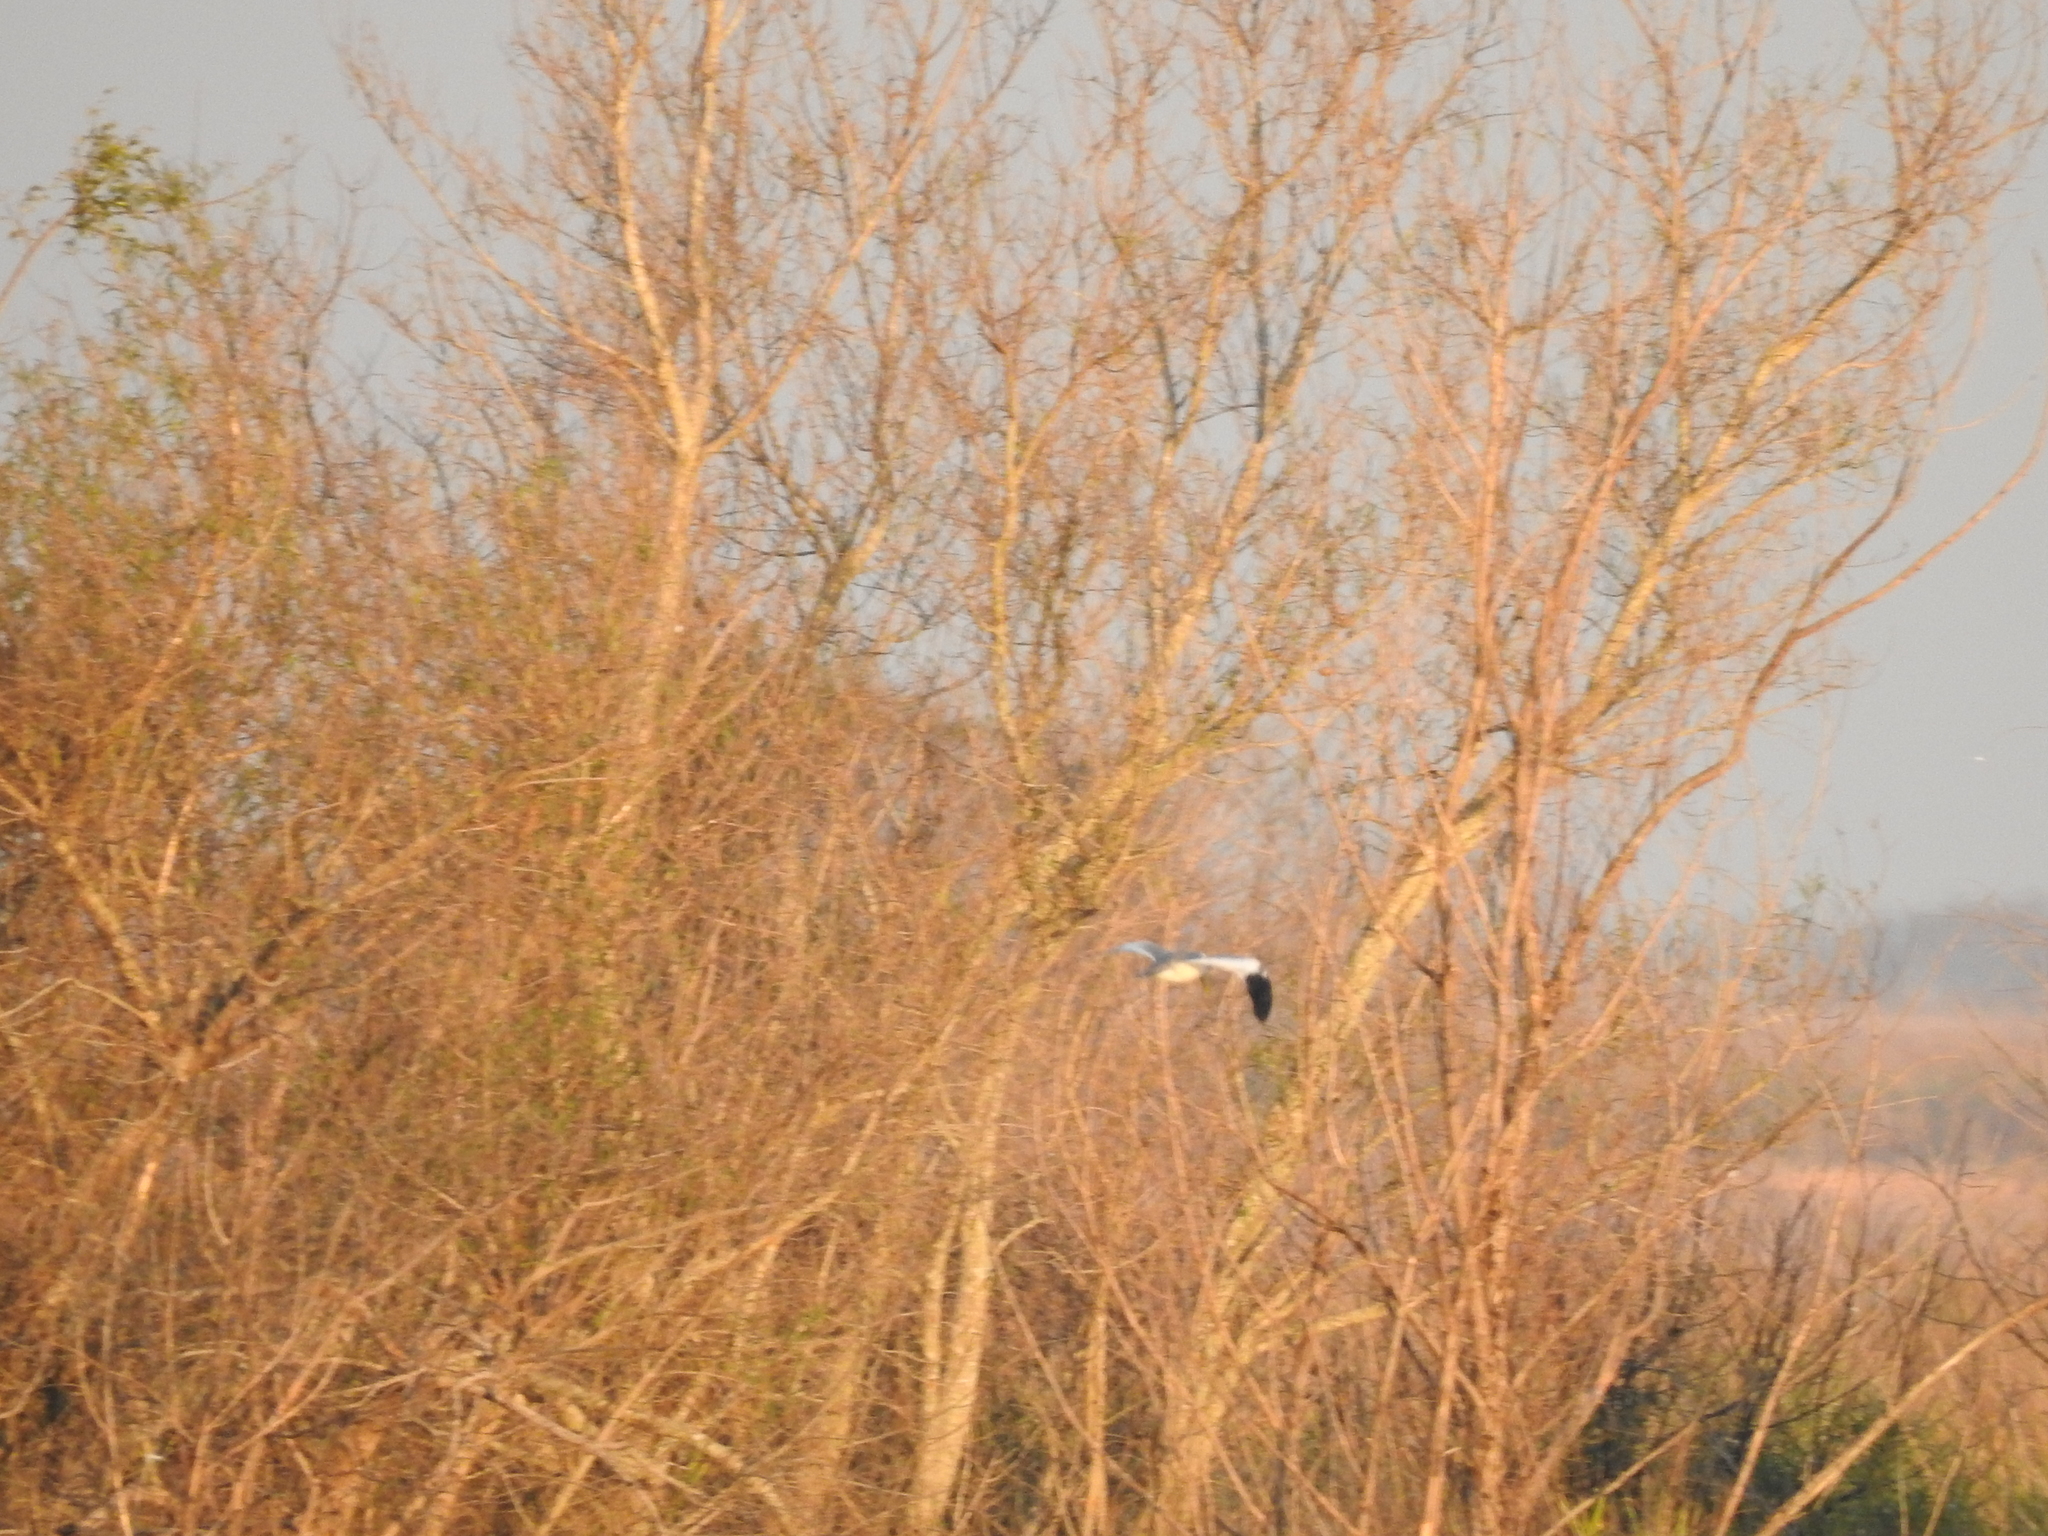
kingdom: Animalia
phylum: Chordata
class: Aves
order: Charadriiformes
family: Laridae
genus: Phaetusa
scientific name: Phaetusa simplex
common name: Large-billed tern
